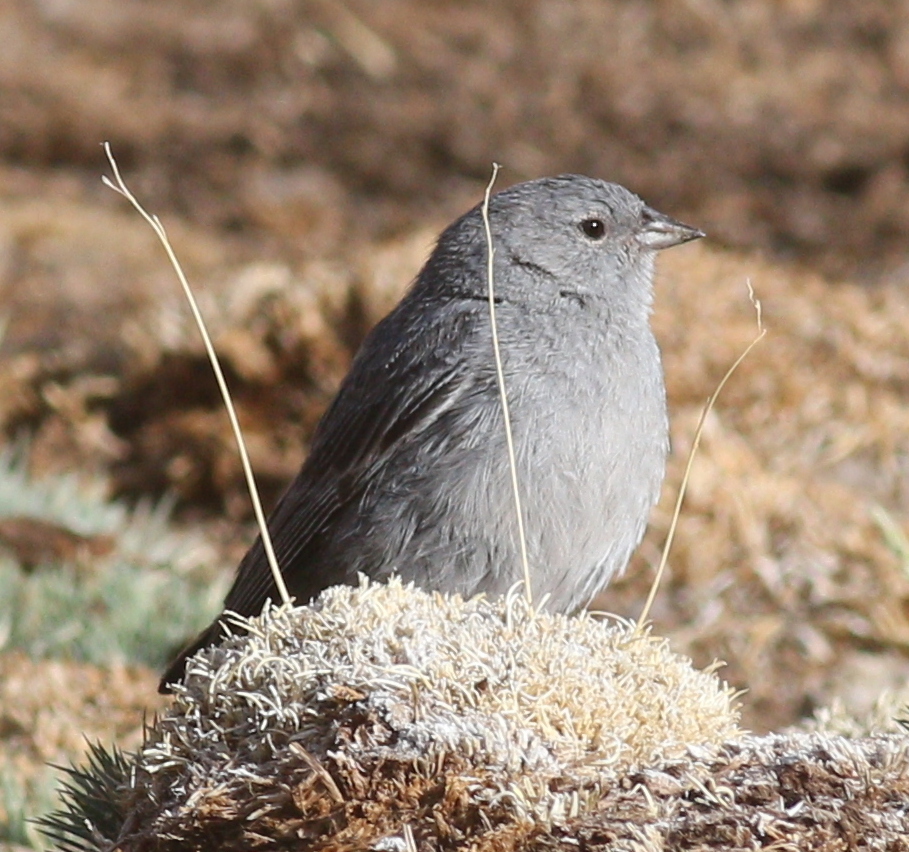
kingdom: Animalia
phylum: Chordata
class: Aves
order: Passeriformes
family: Thraupidae
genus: Geospizopsis
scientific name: Geospizopsis unicolor
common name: Plumbeous sierra-finch
